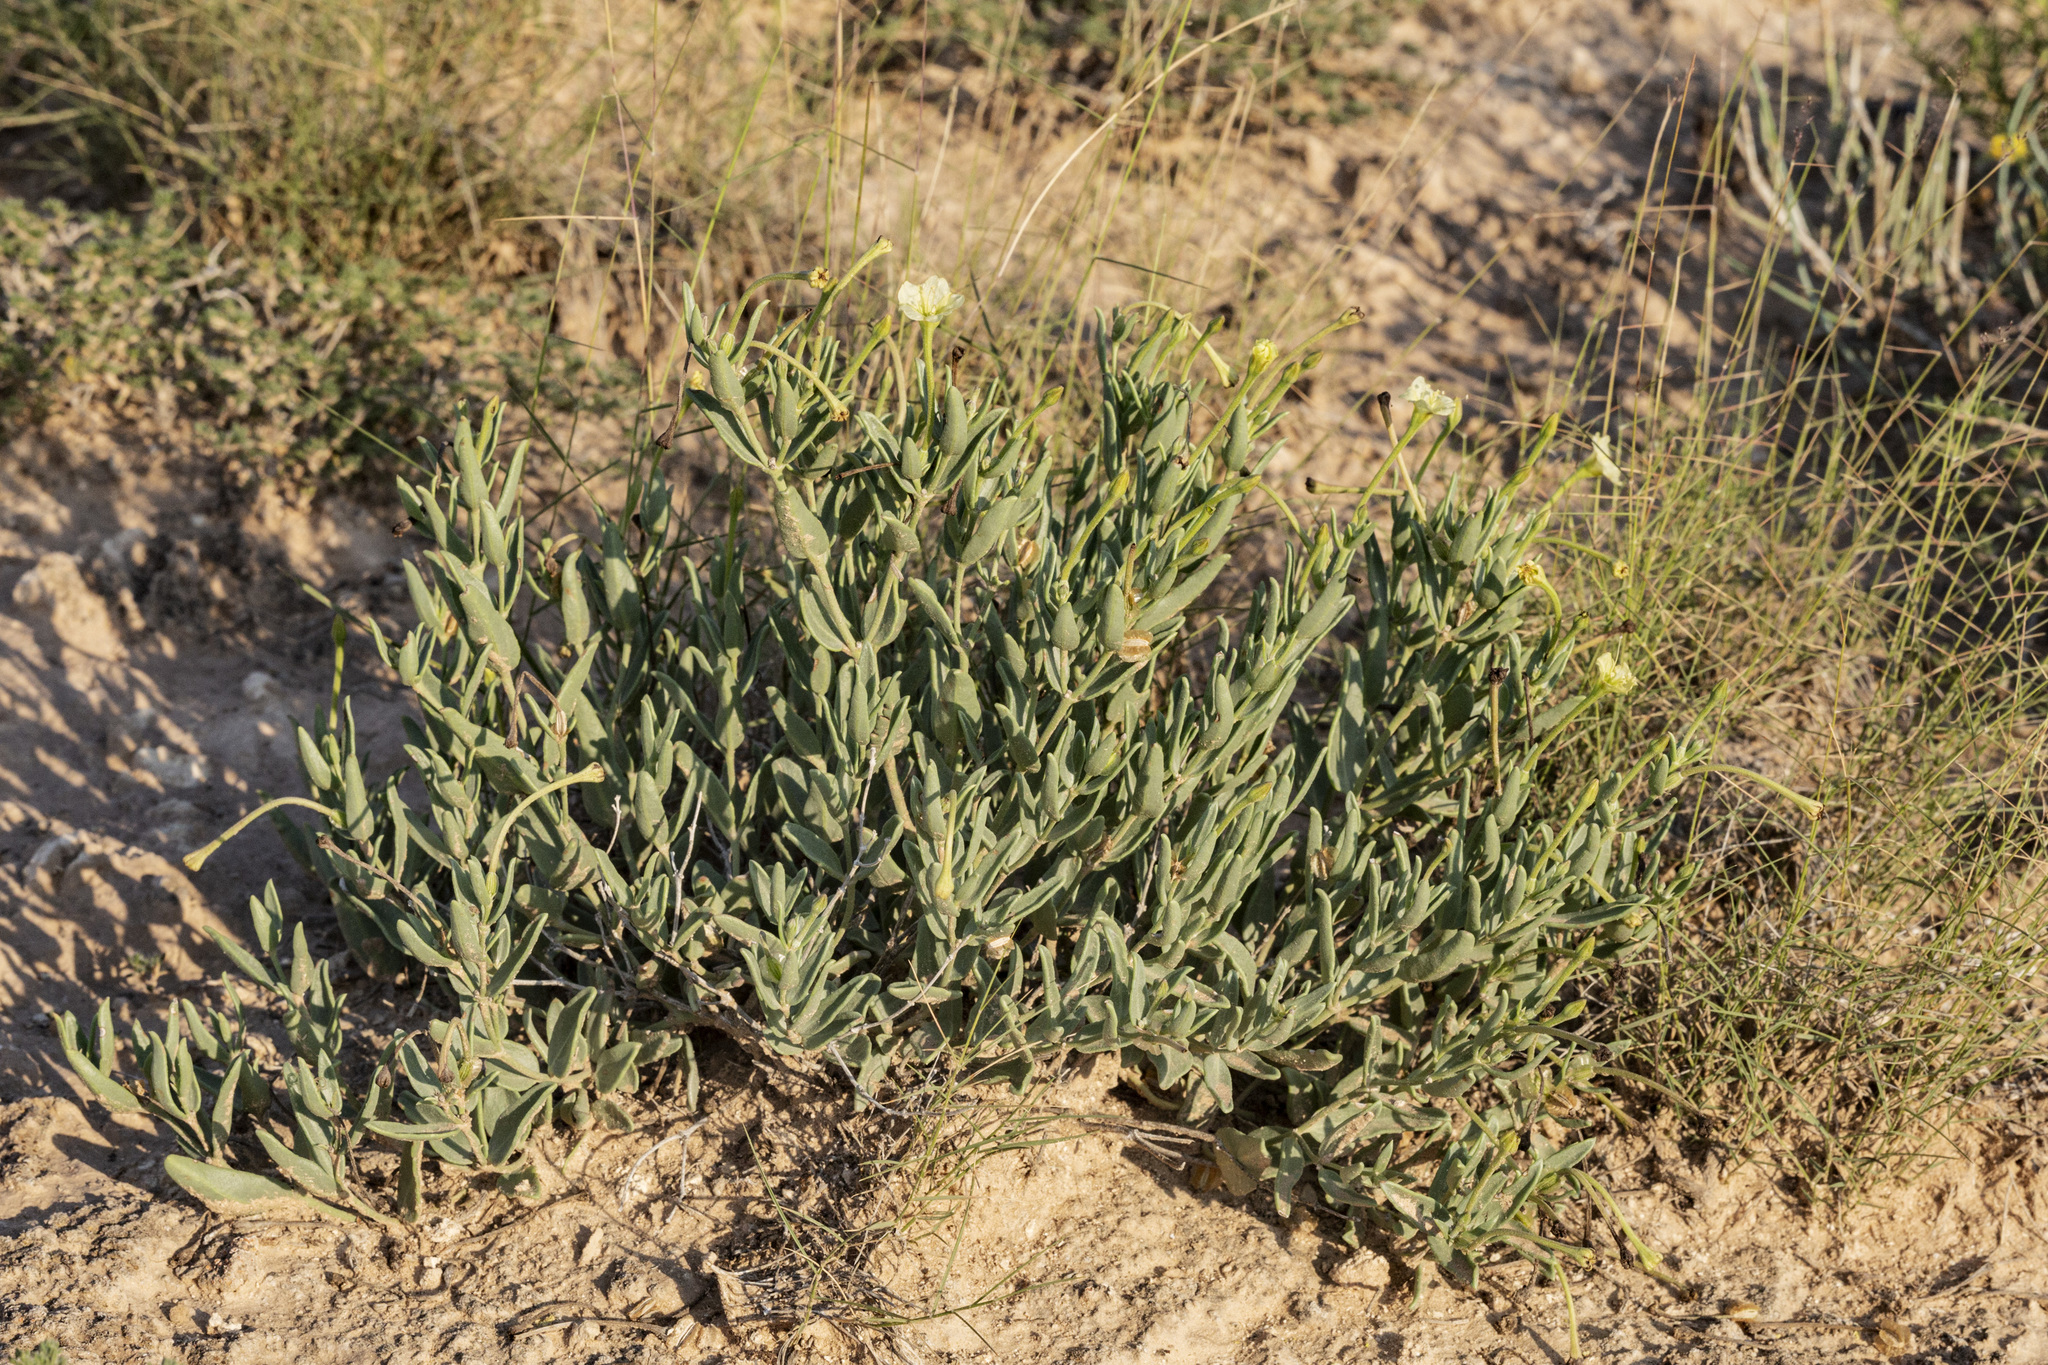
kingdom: Plantae
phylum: Tracheophyta
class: Magnoliopsida
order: Caryophyllales
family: Nyctaginaceae
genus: Acleisanthes
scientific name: Acleisanthes lanceolata
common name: Gypsum moonpod
